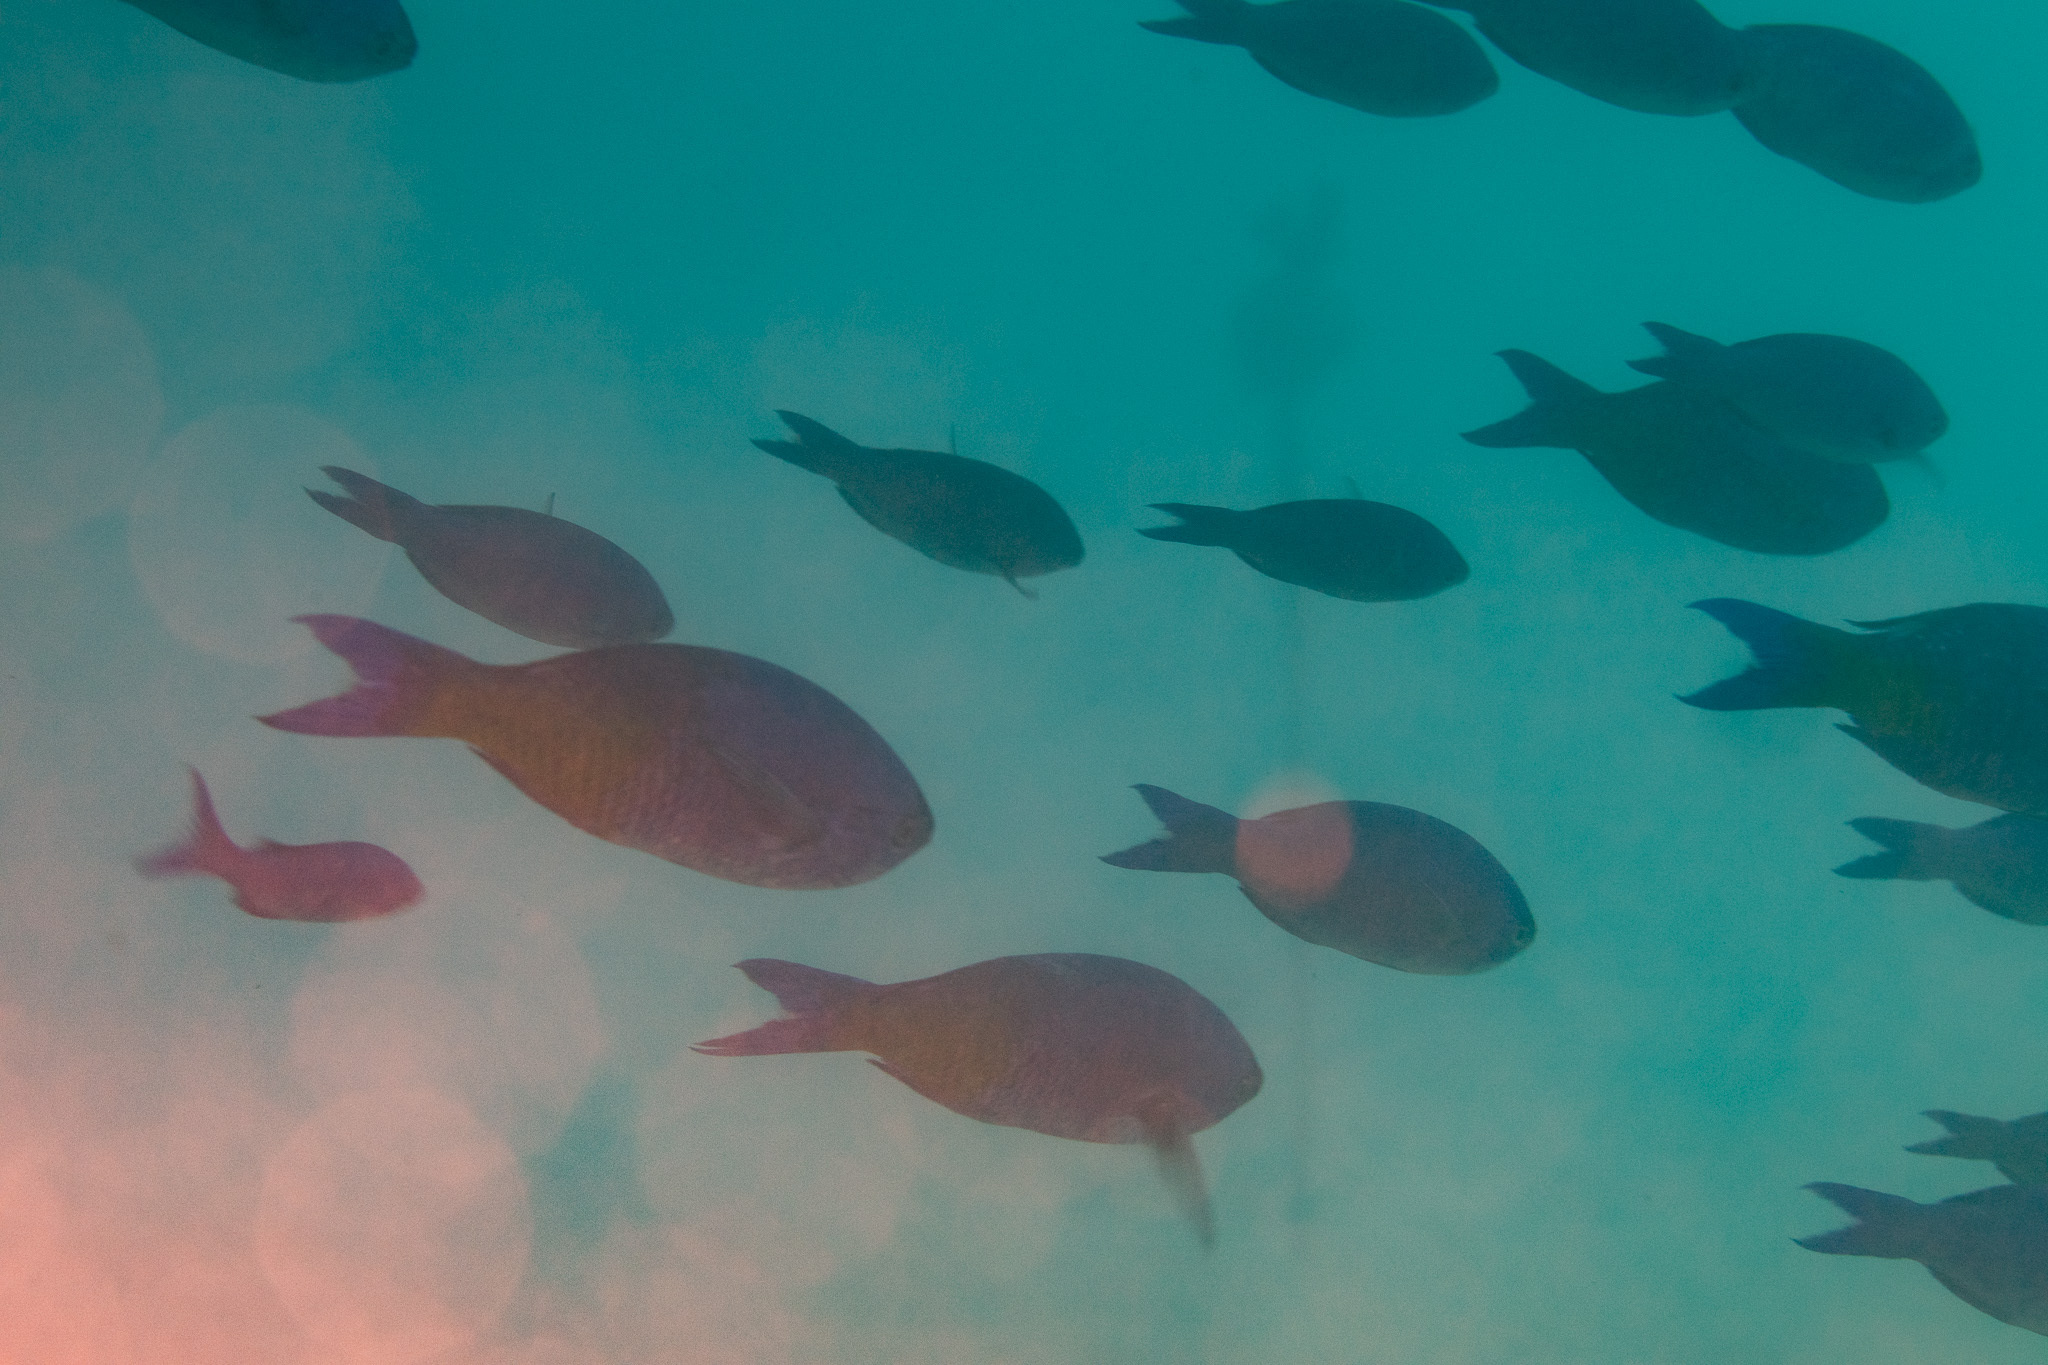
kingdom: Animalia
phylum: Chordata
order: Perciformes
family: Labridae
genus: Bodianus
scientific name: Bodianus
